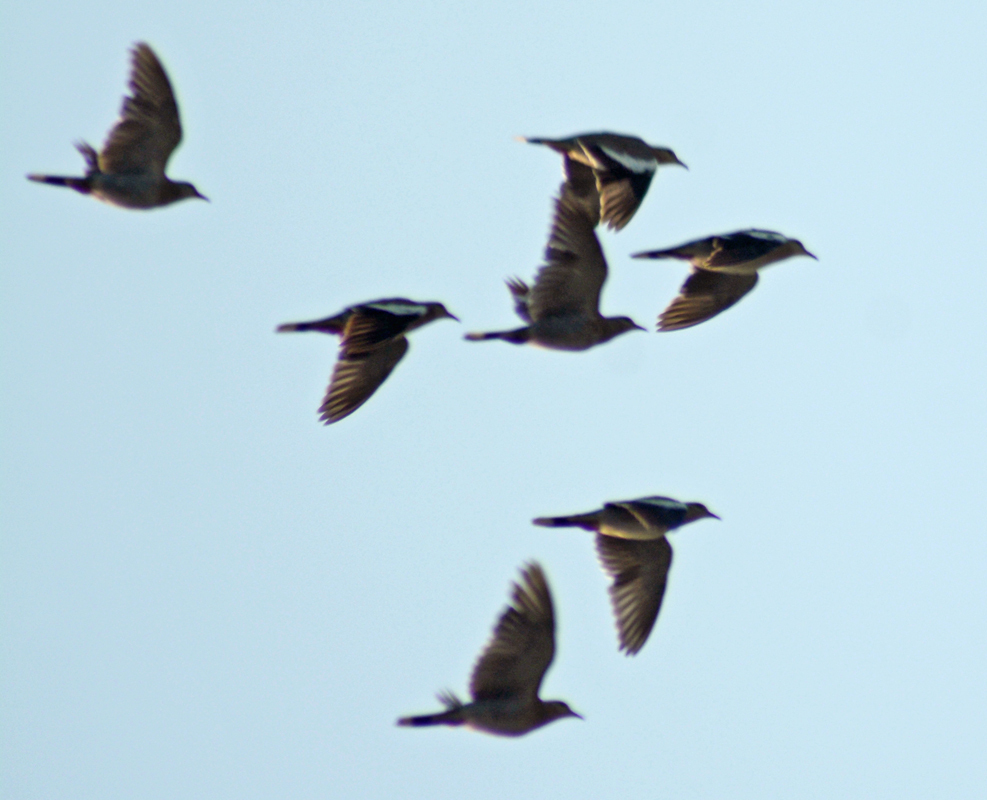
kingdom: Animalia
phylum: Chordata
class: Aves
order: Columbiformes
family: Columbidae
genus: Zenaida
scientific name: Zenaida asiatica
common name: White-winged dove
